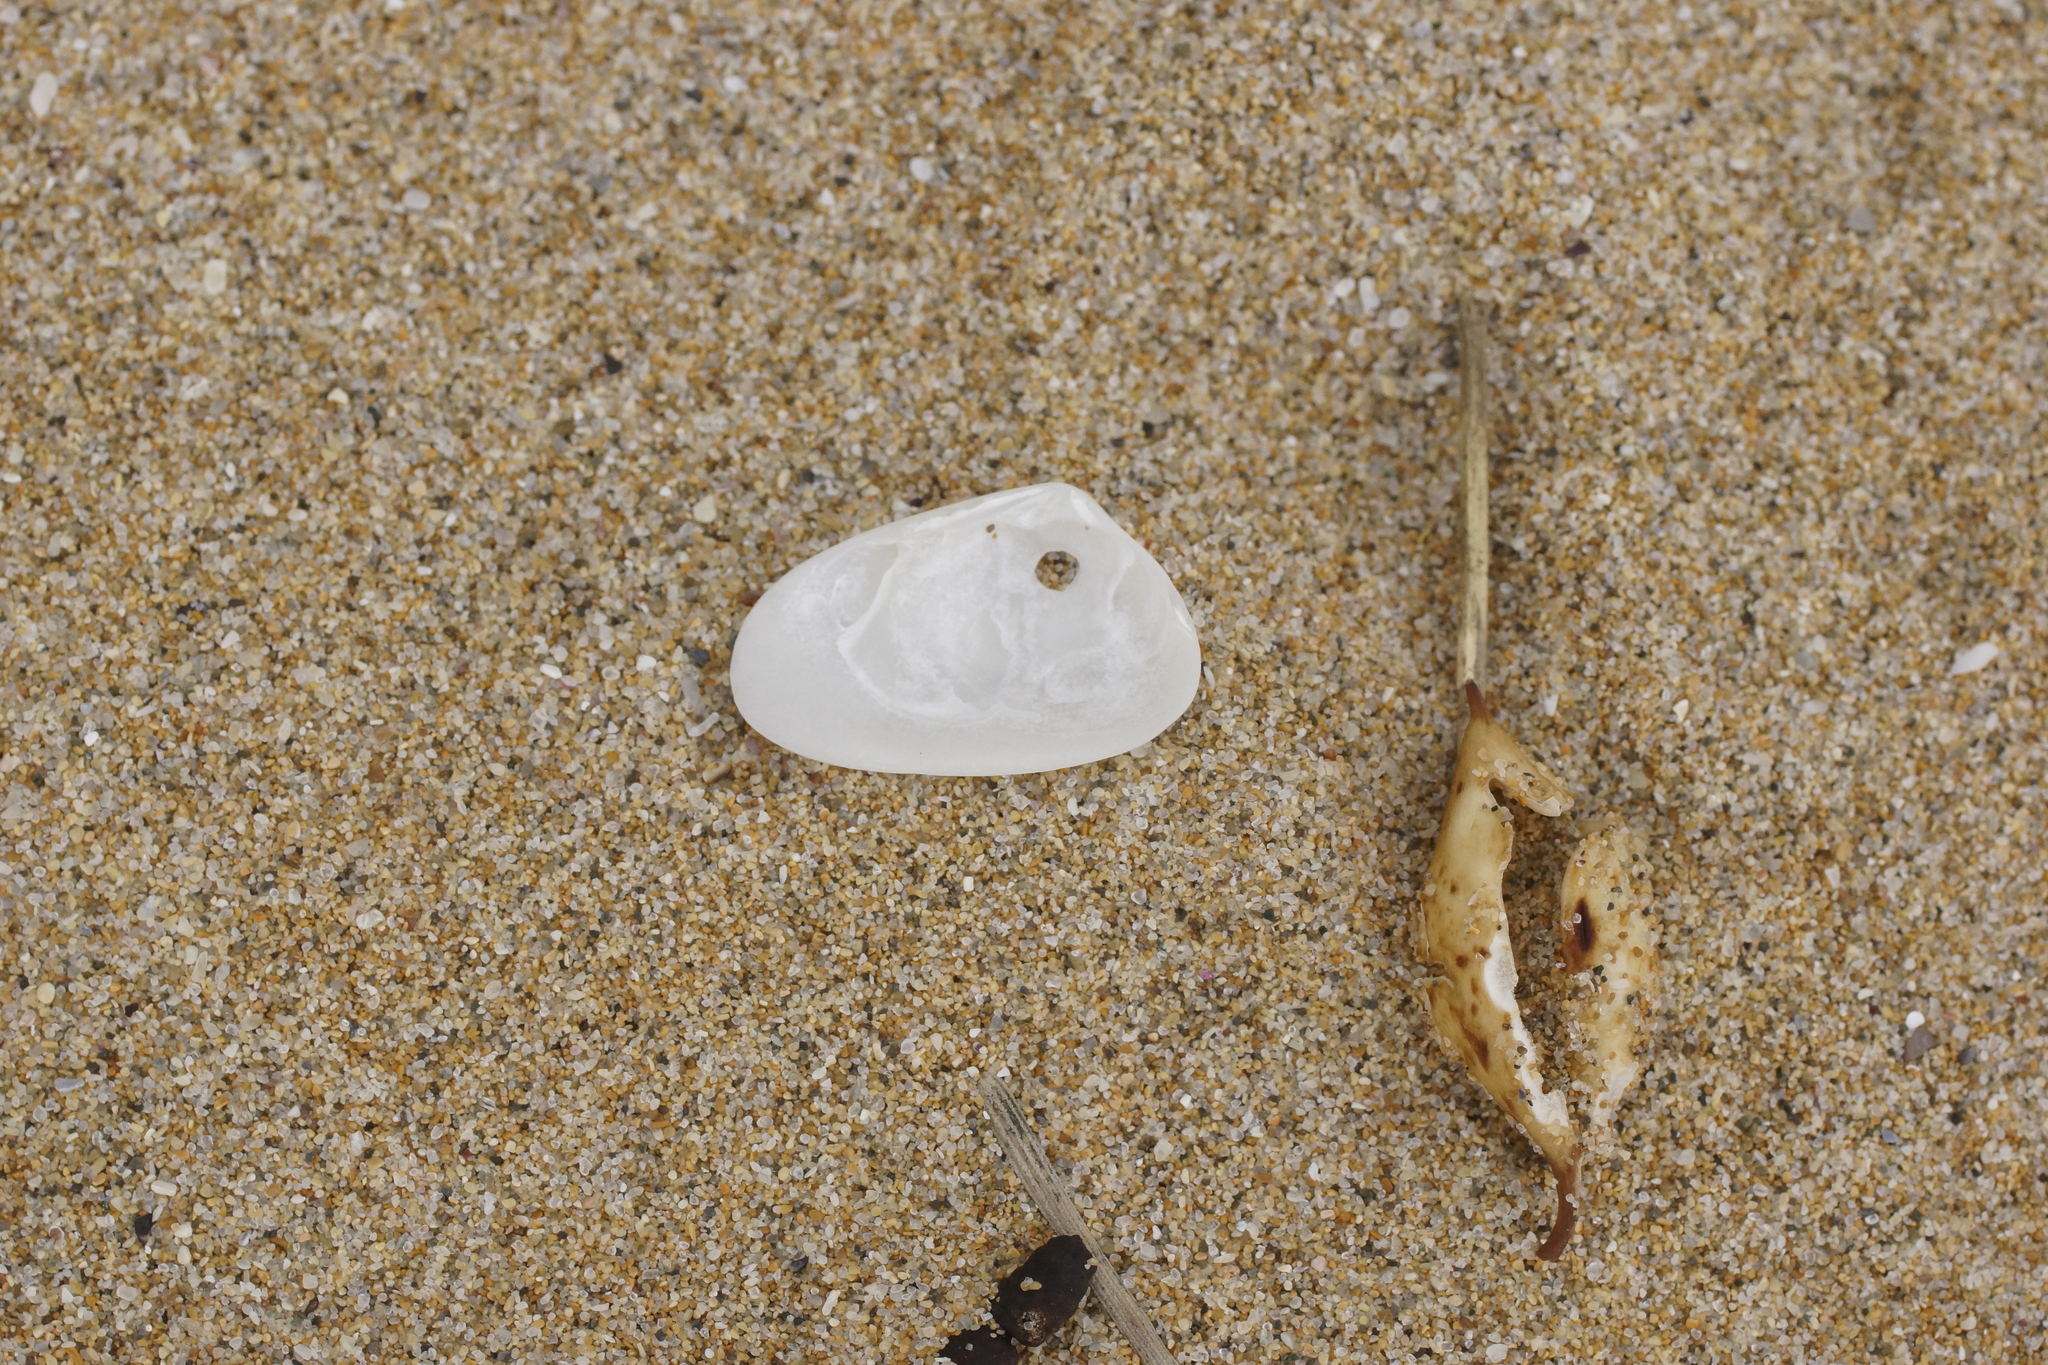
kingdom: Animalia
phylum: Mollusca
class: Bivalvia
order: Venerida
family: Mesodesmatidae
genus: Paphies
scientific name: Paphies angusta
